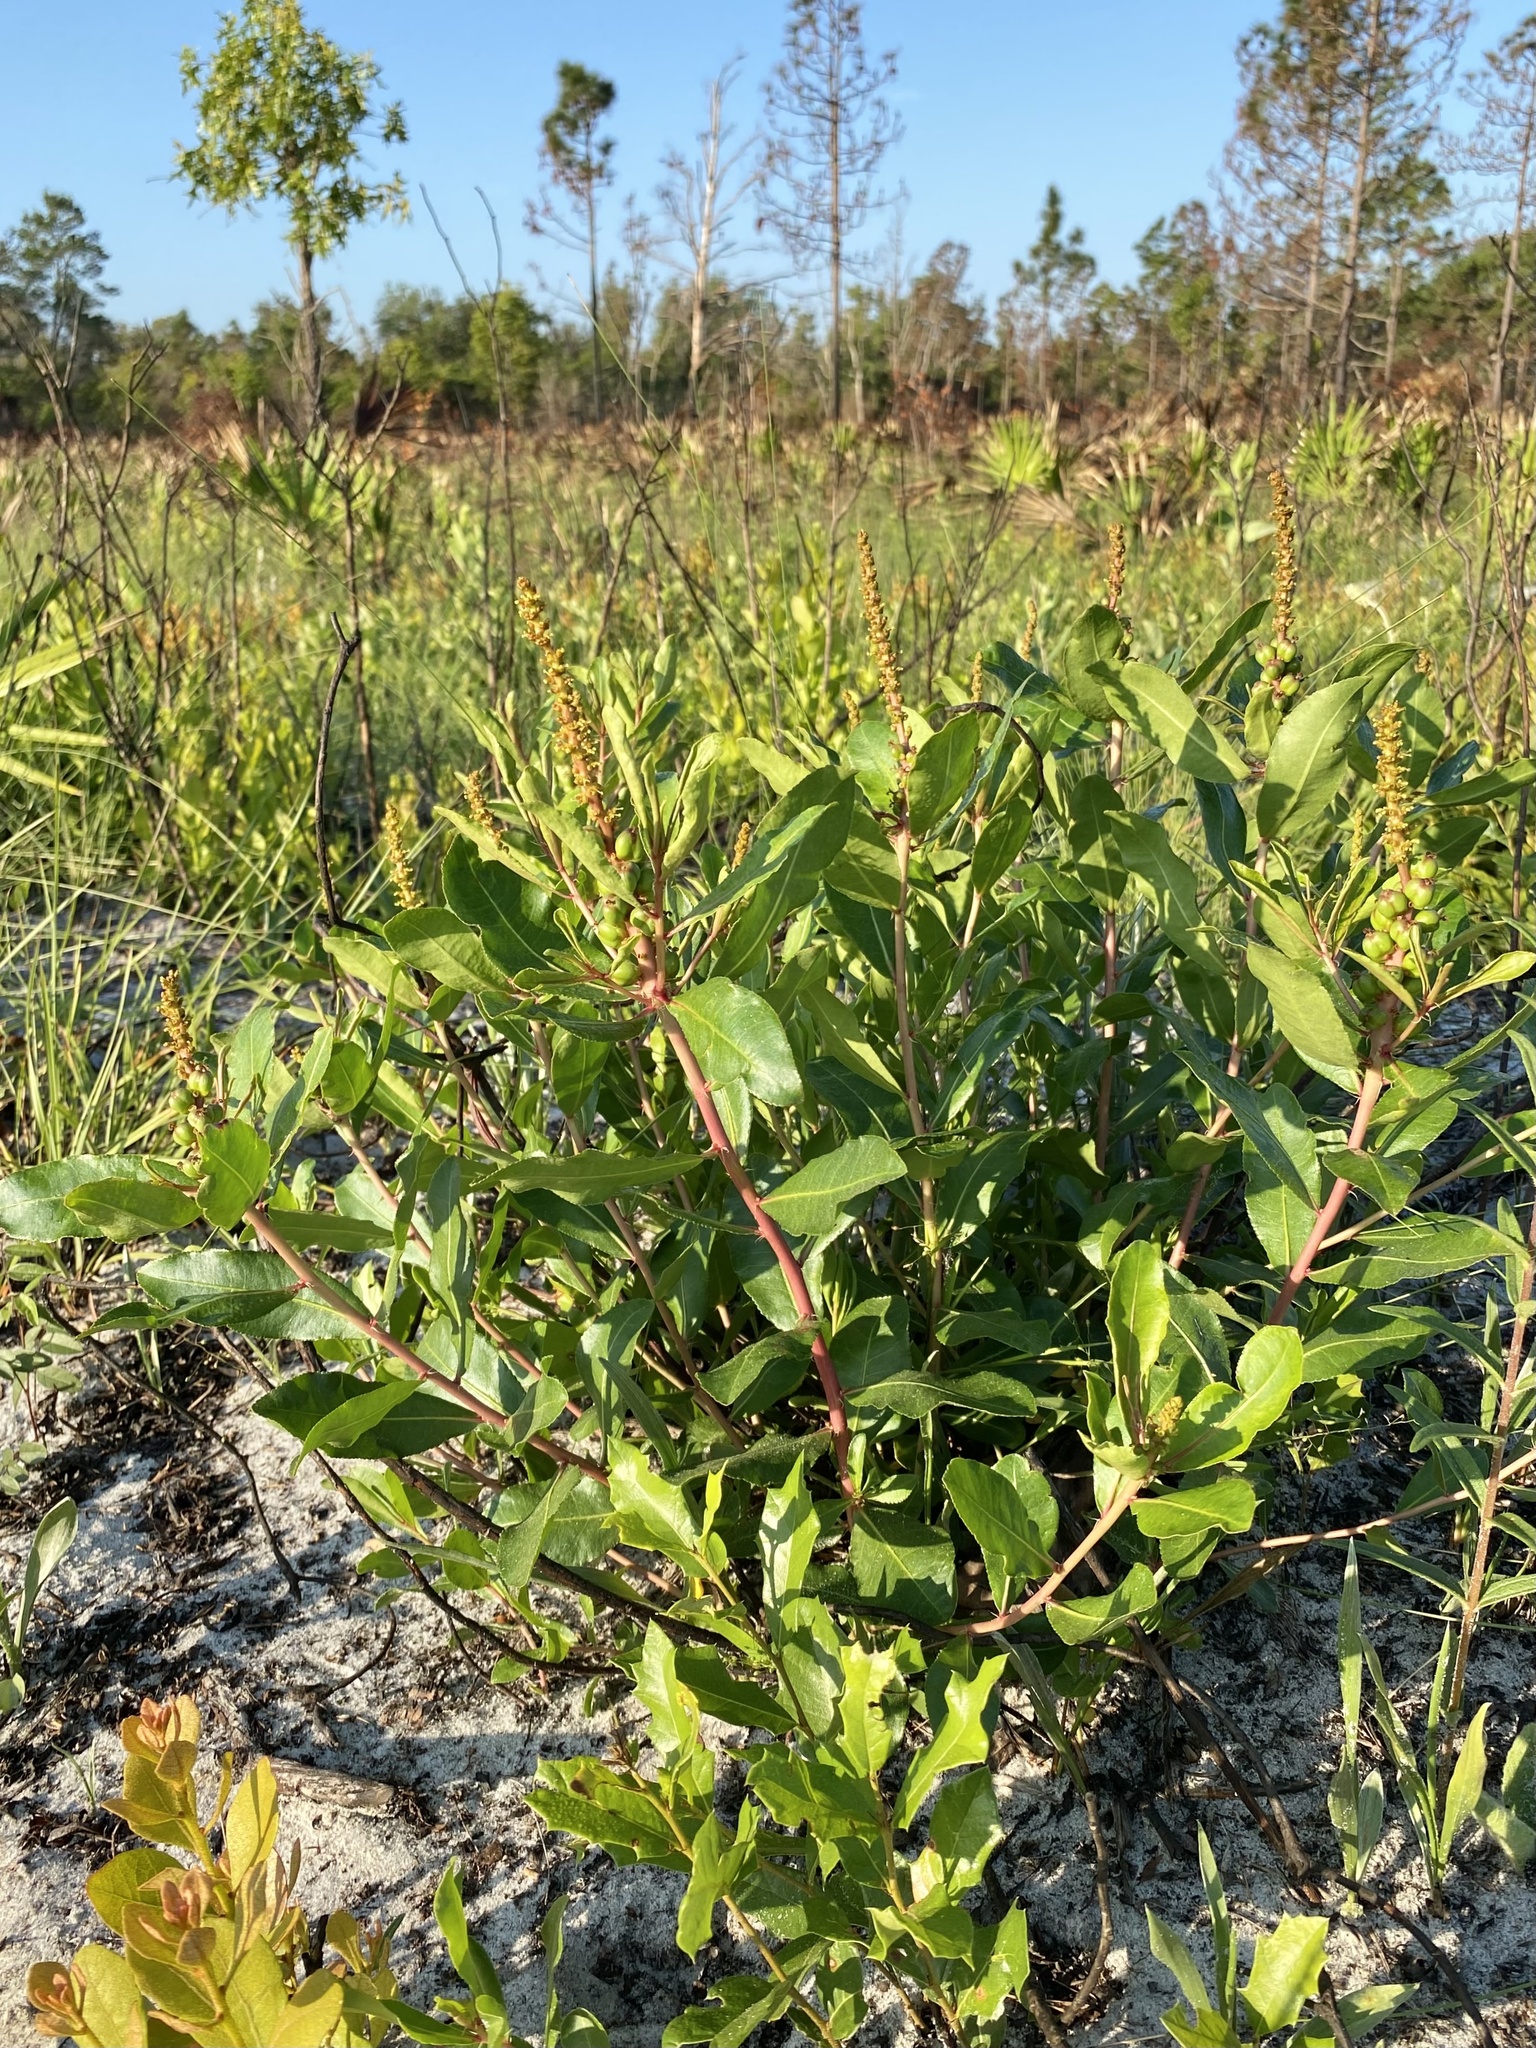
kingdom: Plantae
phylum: Tracheophyta
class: Magnoliopsida
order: Malpighiales
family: Euphorbiaceae
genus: Stillingia
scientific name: Stillingia sylvatica
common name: Queen's-delight
